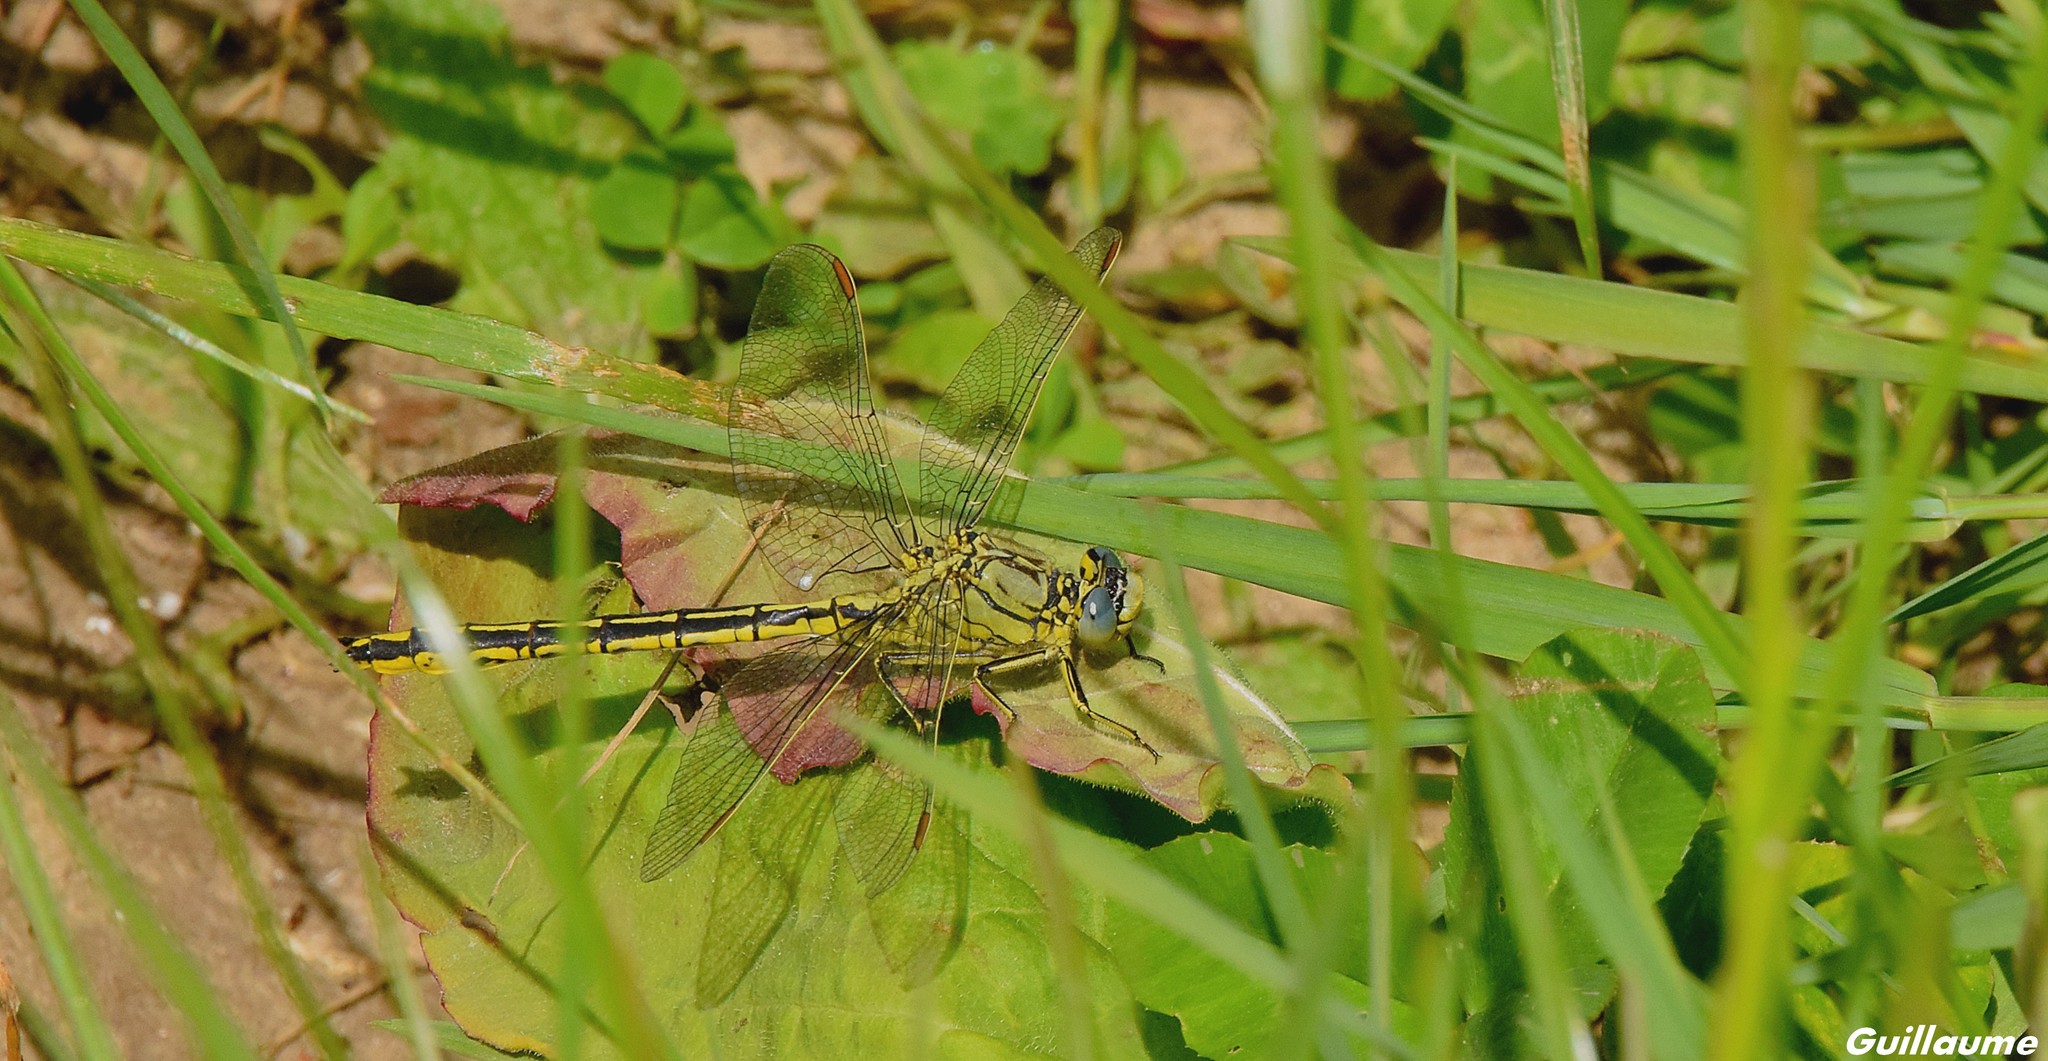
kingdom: Animalia
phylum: Arthropoda
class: Insecta
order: Odonata
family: Gomphidae
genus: Gomphus
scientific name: Gomphus pulchellus
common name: Western clubtail
